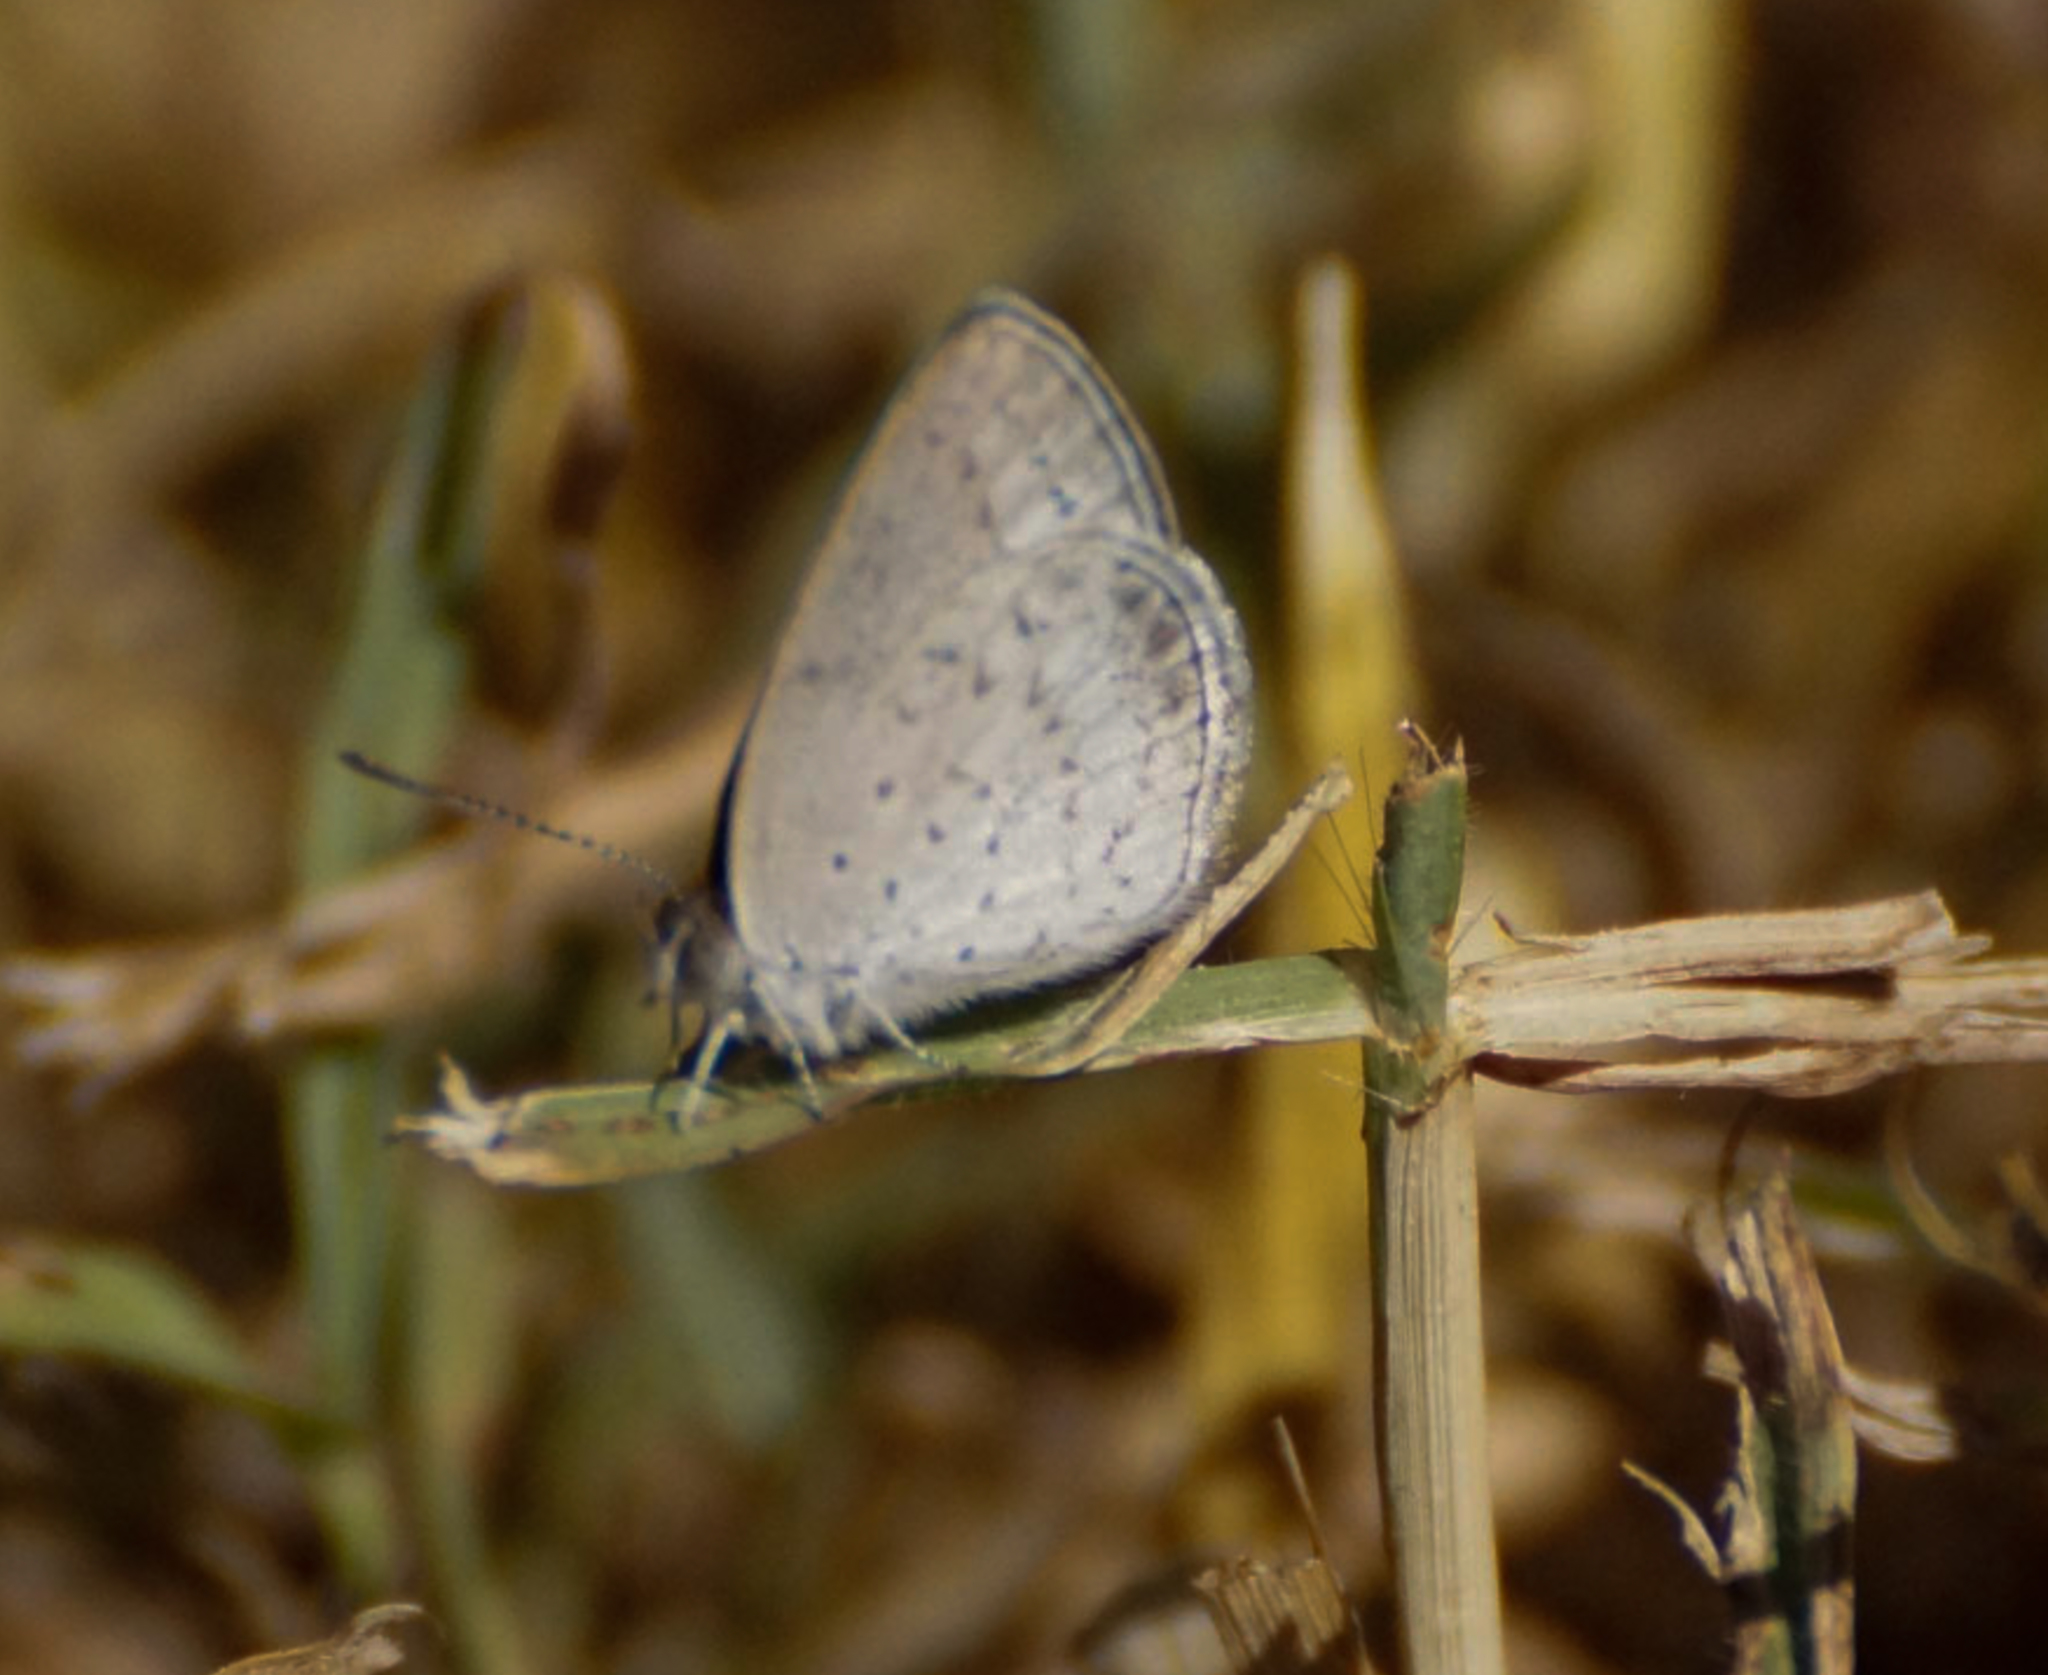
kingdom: Animalia
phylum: Arthropoda
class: Insecta
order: Lepidoptera
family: Lycaenidae
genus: Candalides
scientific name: Candalides
